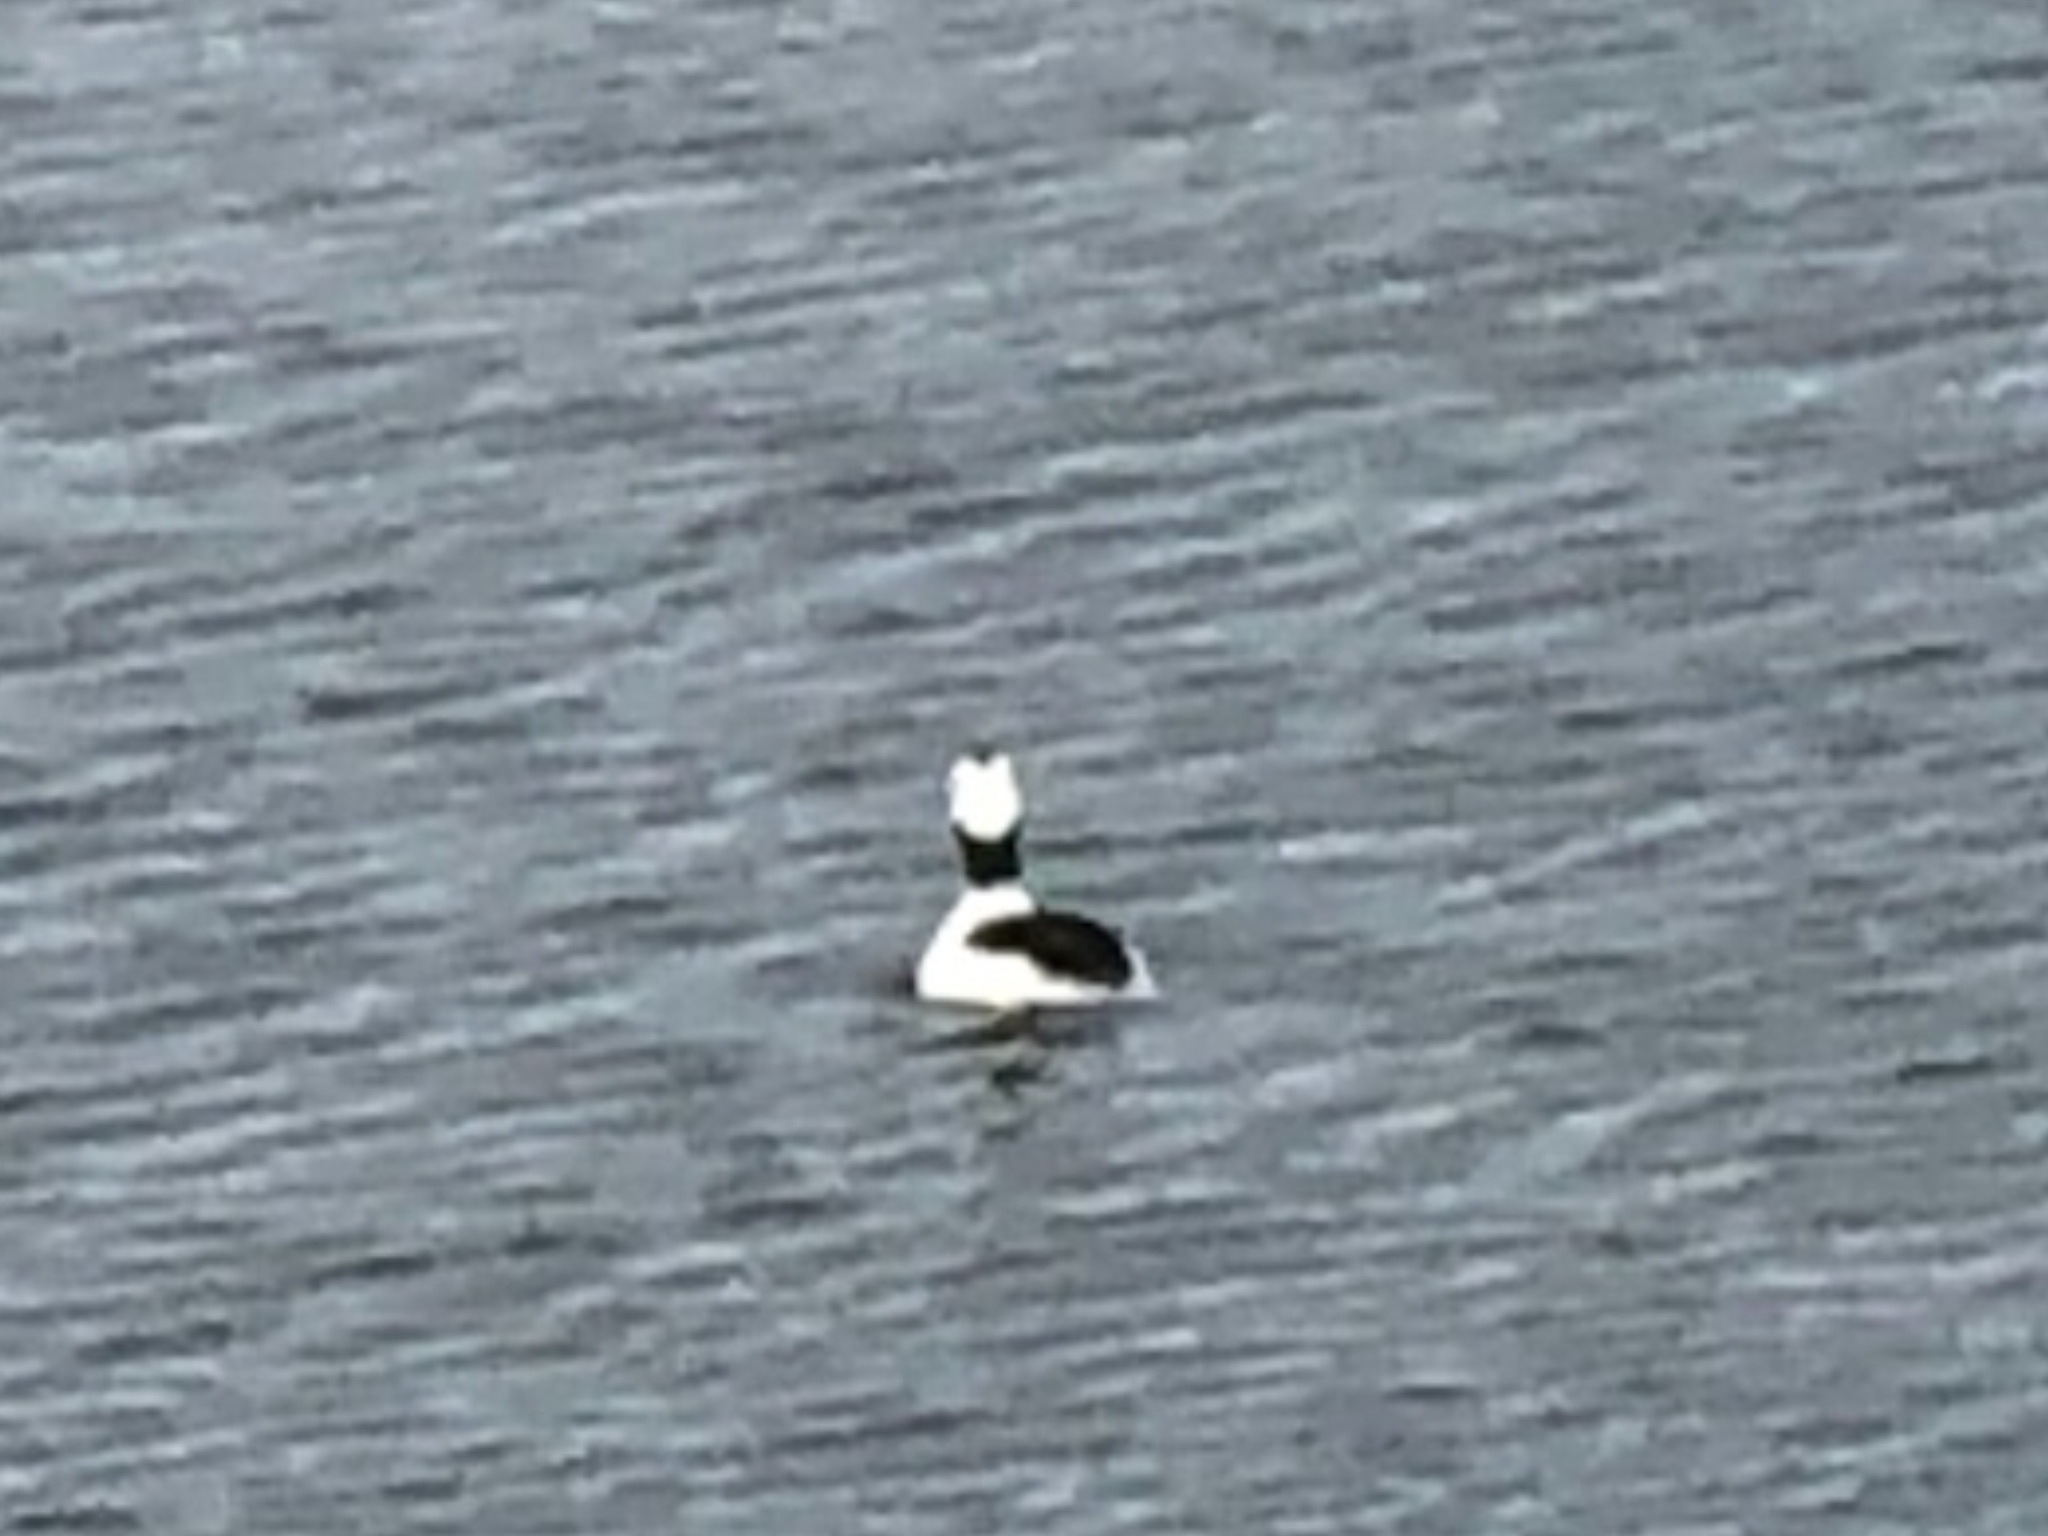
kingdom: Animalia
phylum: Chordata
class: Aves
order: Anseriformes
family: Anatidae
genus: Bucephala
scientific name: Bucephala albeola
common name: Bufflehead
